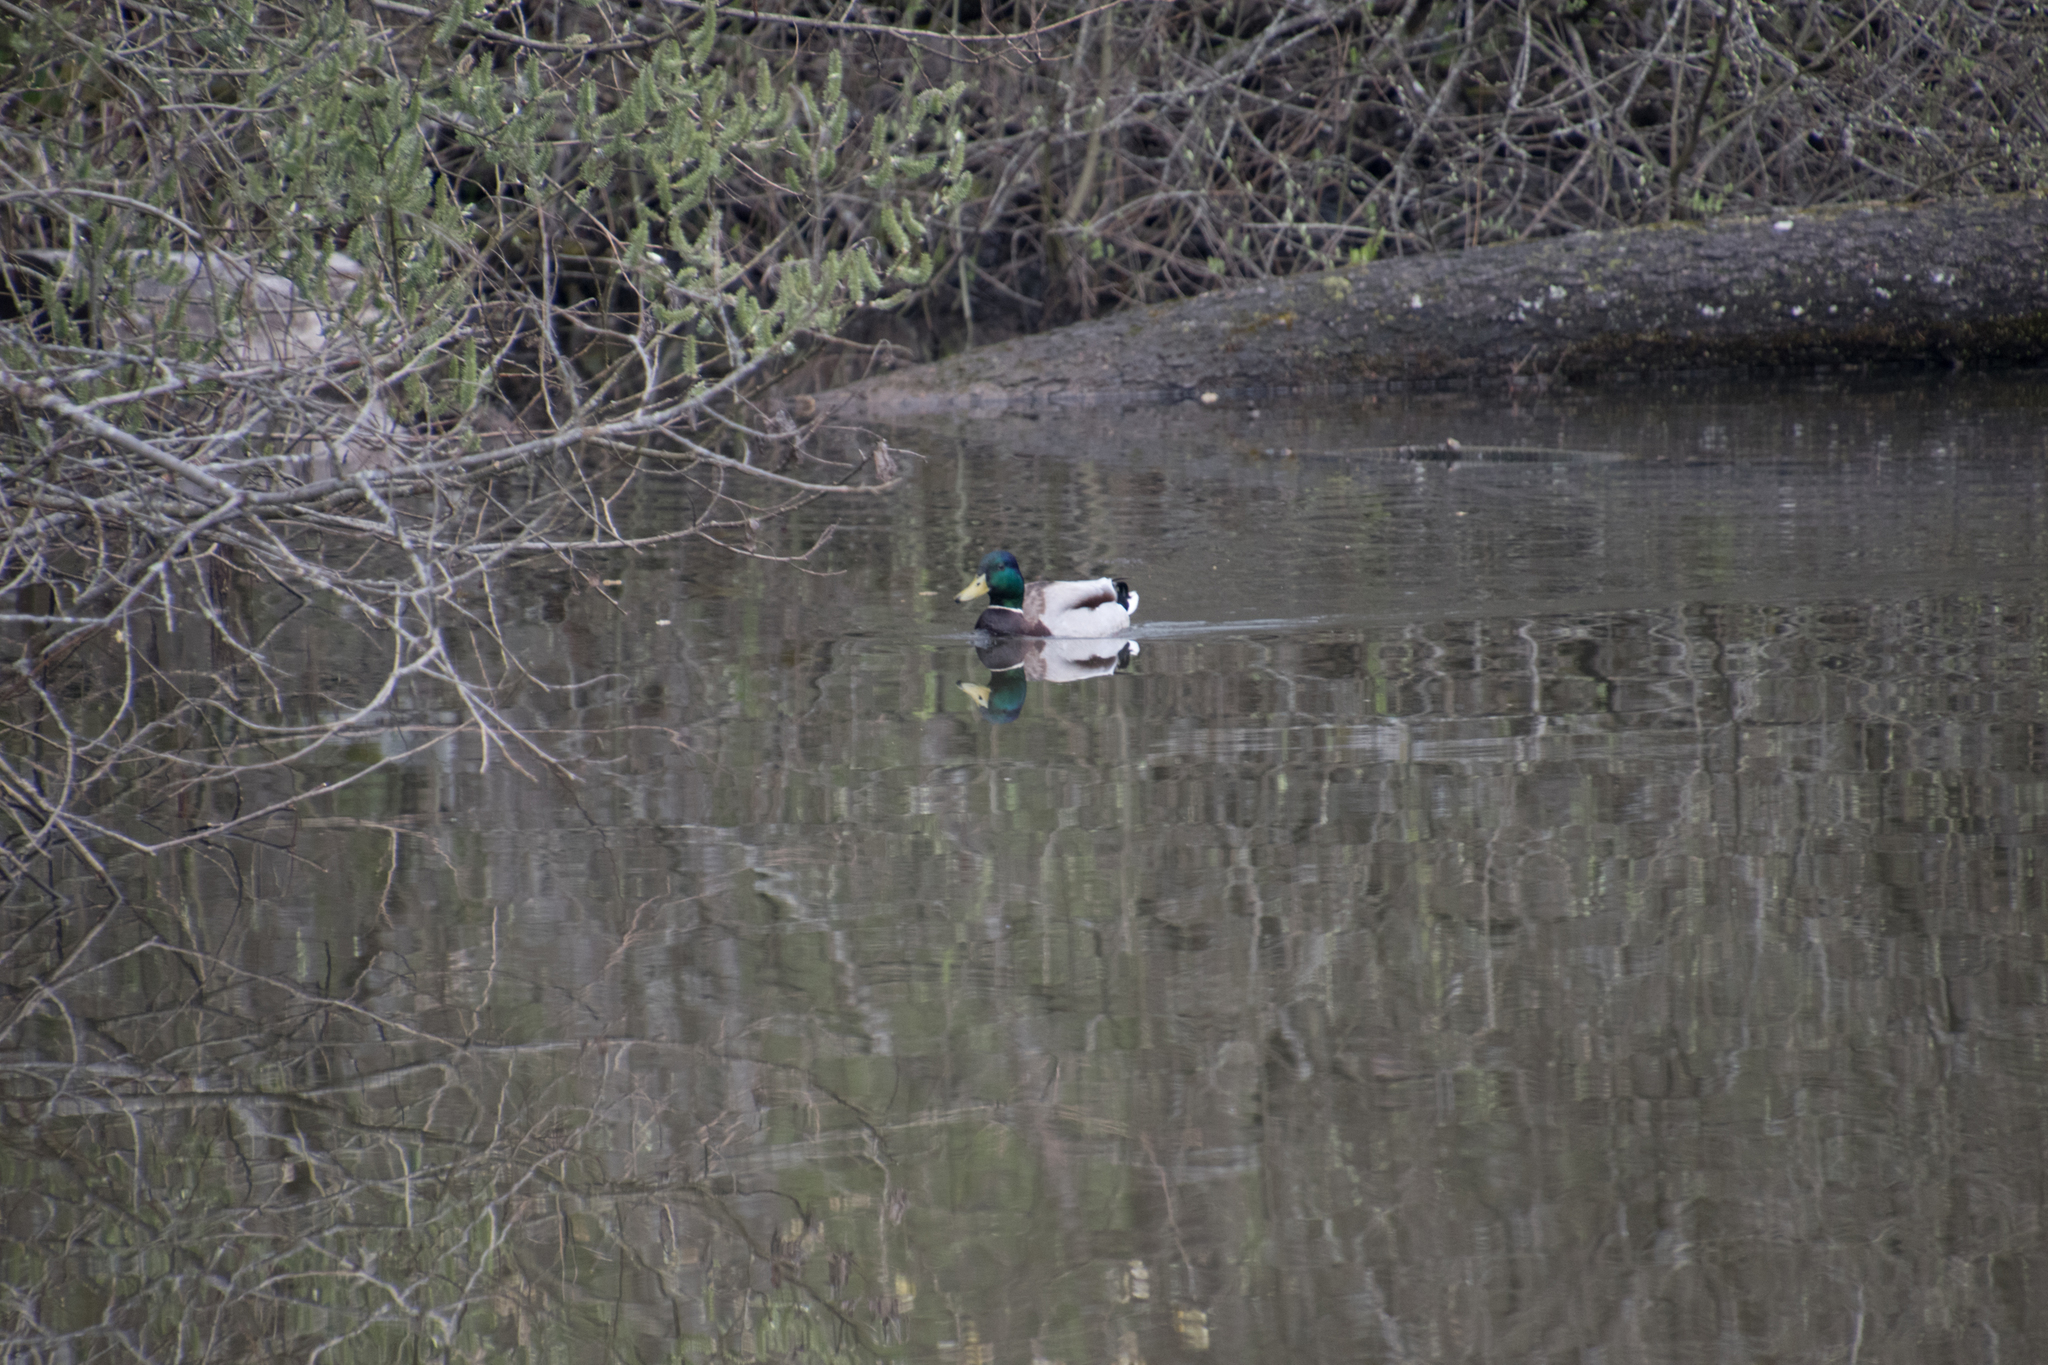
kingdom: Animalia
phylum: Chordata
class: Aves
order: Anseriformes
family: Anatidae
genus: Anas
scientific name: Anas platyrhynchos
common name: Mallard
